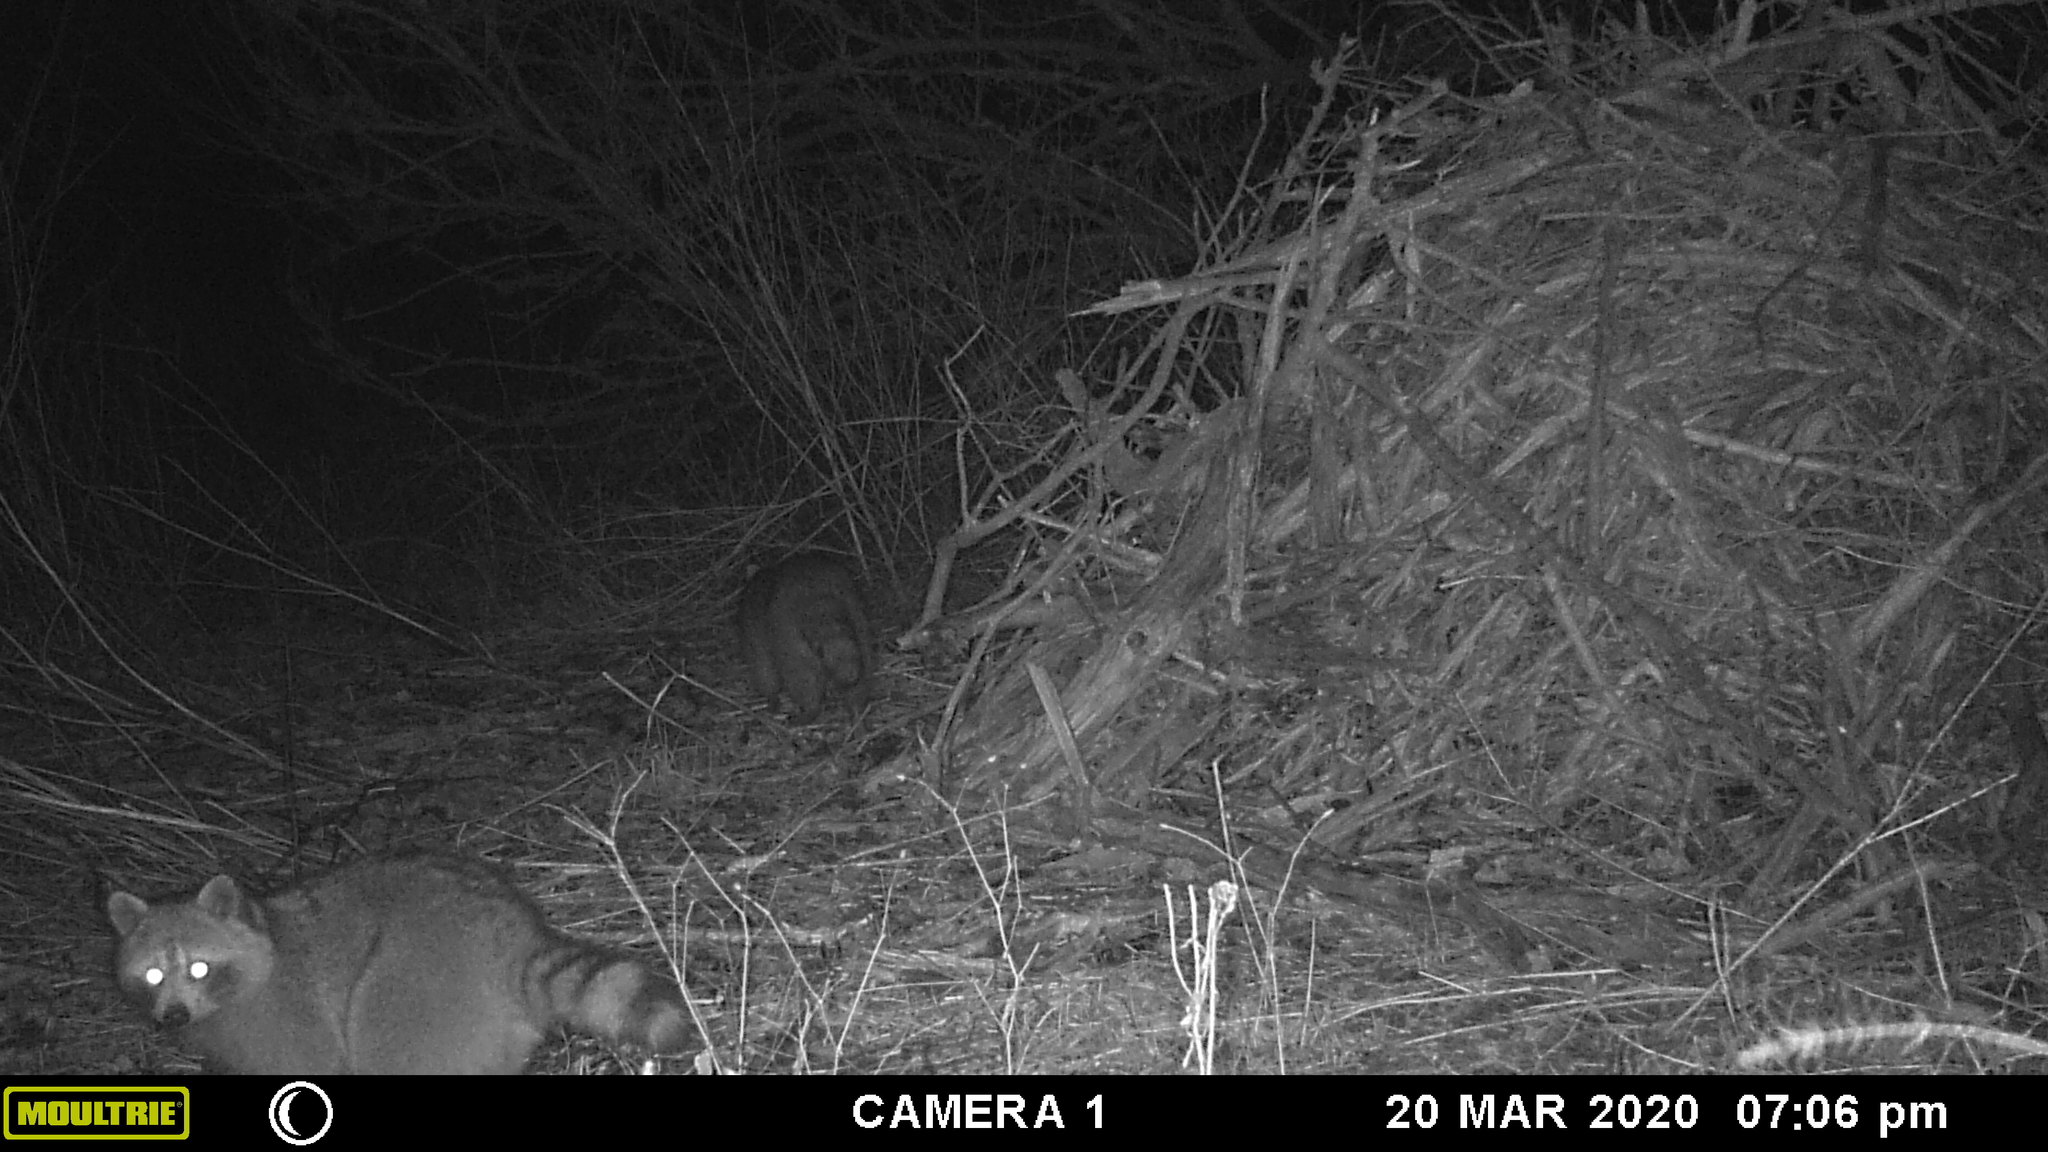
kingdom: Animalia
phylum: Chordata
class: Mammalia
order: Carnivora
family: Procyonidae
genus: Procyon
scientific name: Procyon lotor
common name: Raccoon
